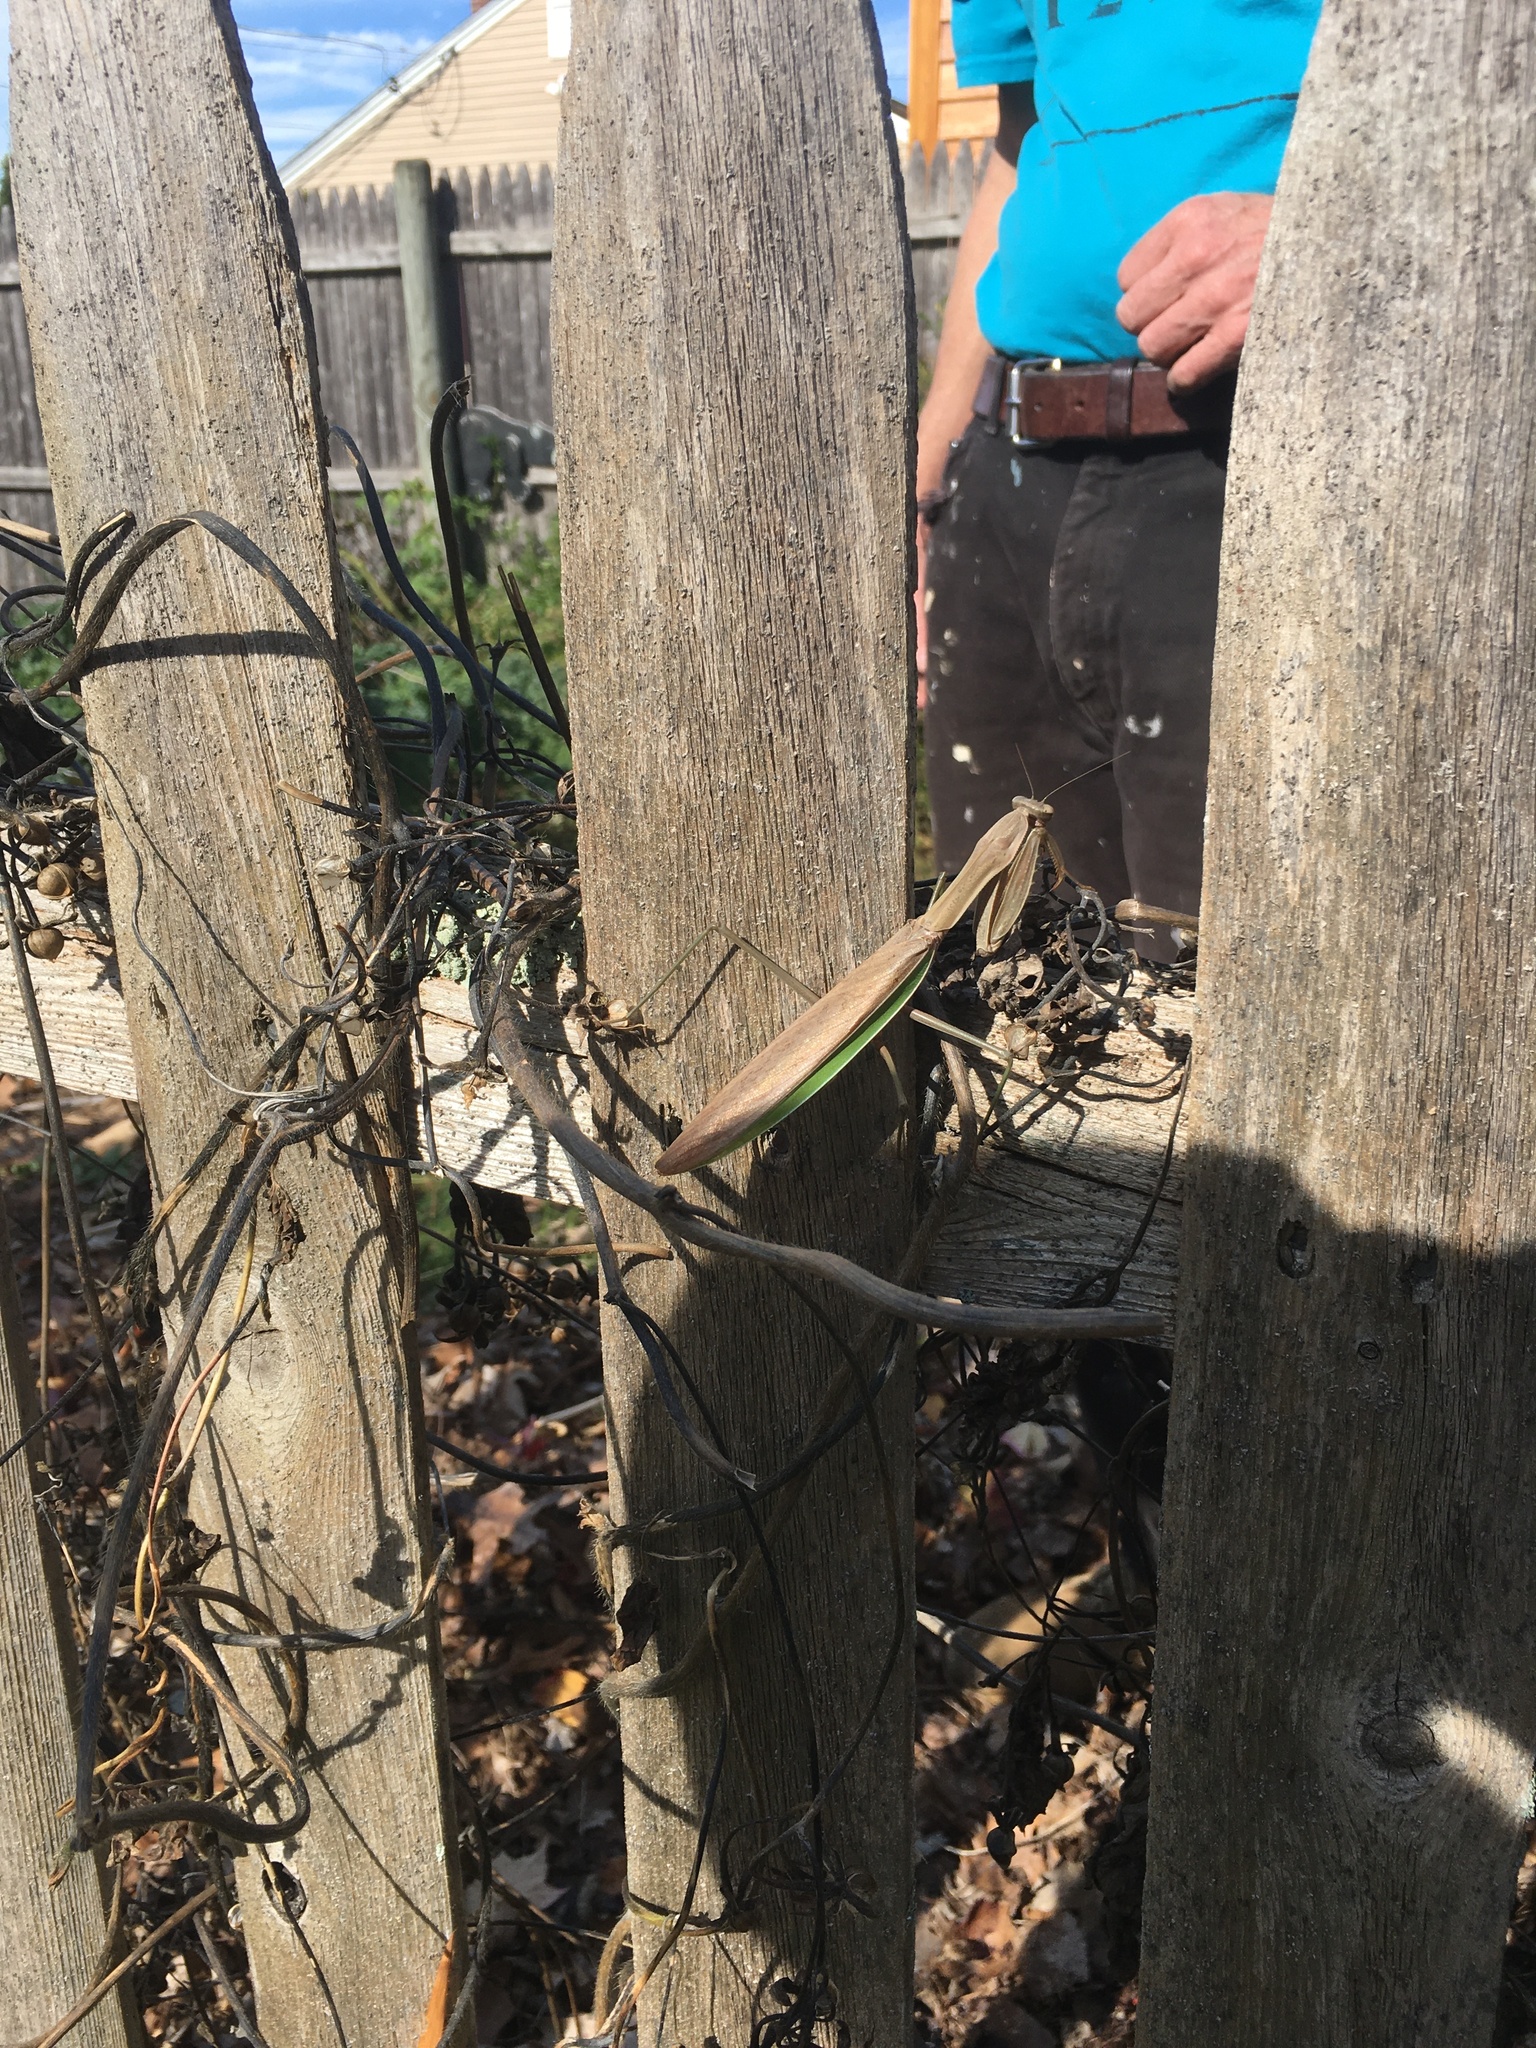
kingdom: Animalia
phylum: Arthropoda
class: Insecta
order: Mantodea
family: Mantidae
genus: Tenodera
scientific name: Tenodera sinensis
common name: Chinese mantis
